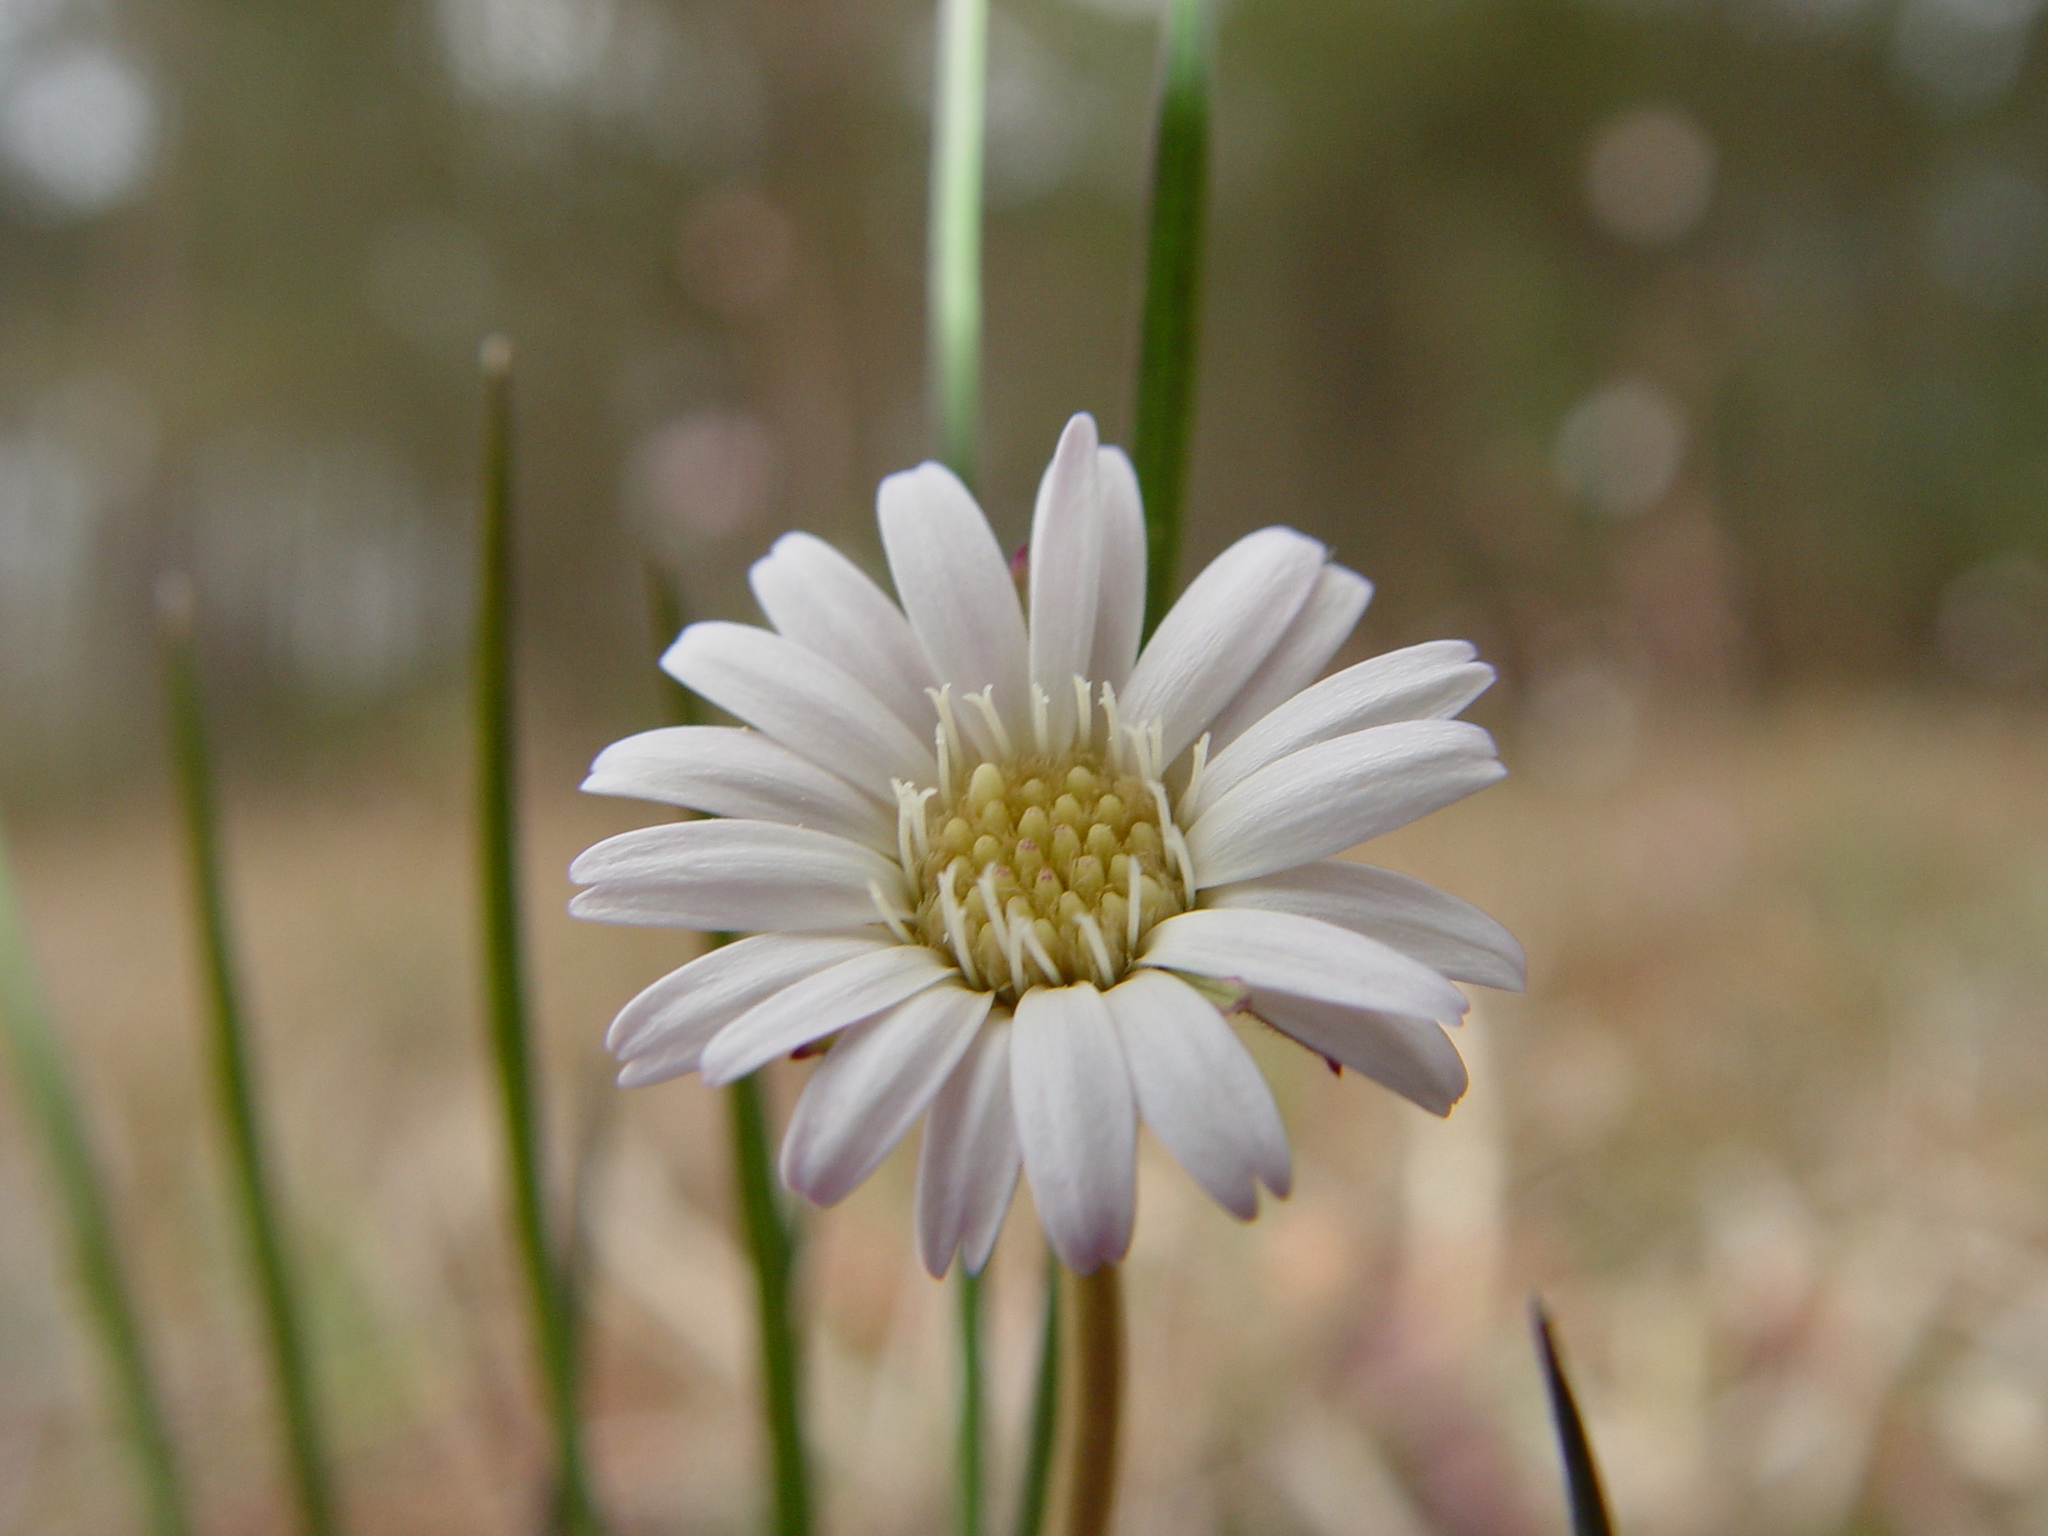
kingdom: Plantae
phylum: Tracheophyta
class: Magnoliopsida
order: Asterales
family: Asteraceae
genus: Chaptalia
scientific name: Chaptalia tomentosa
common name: Woolly sunbonnet
